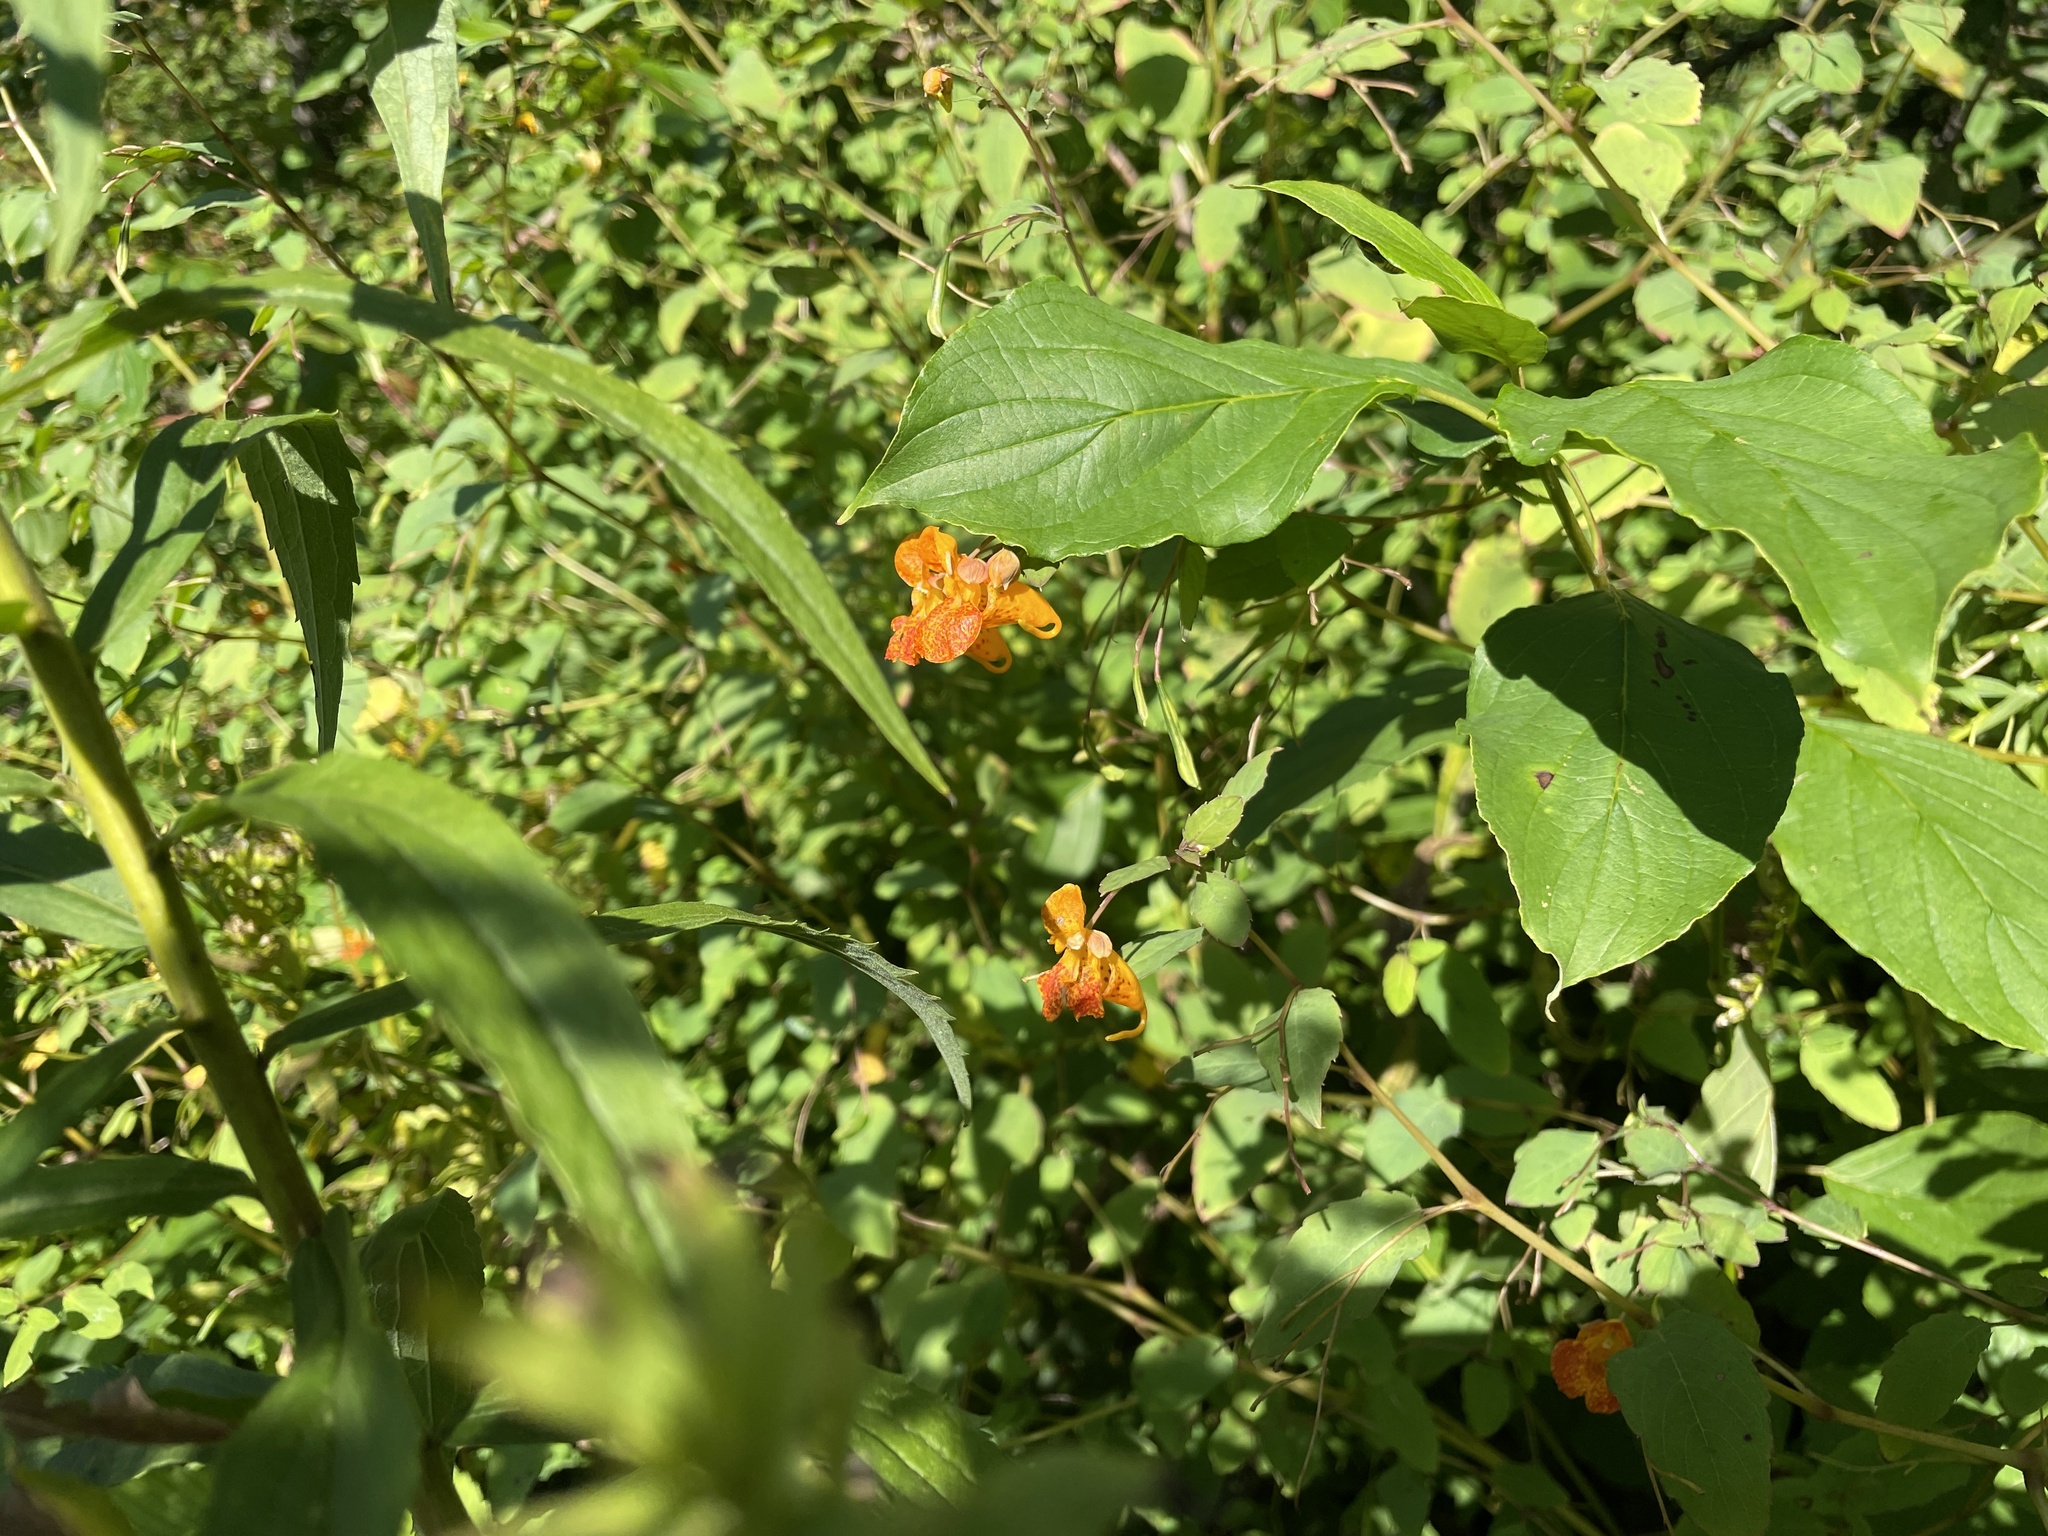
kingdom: Plantae
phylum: Tracheophyta
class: Magnoliopsida
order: Ericales
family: Balsaminaceae
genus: Impatiens
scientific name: Impatiens capensis
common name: Orange balsam
